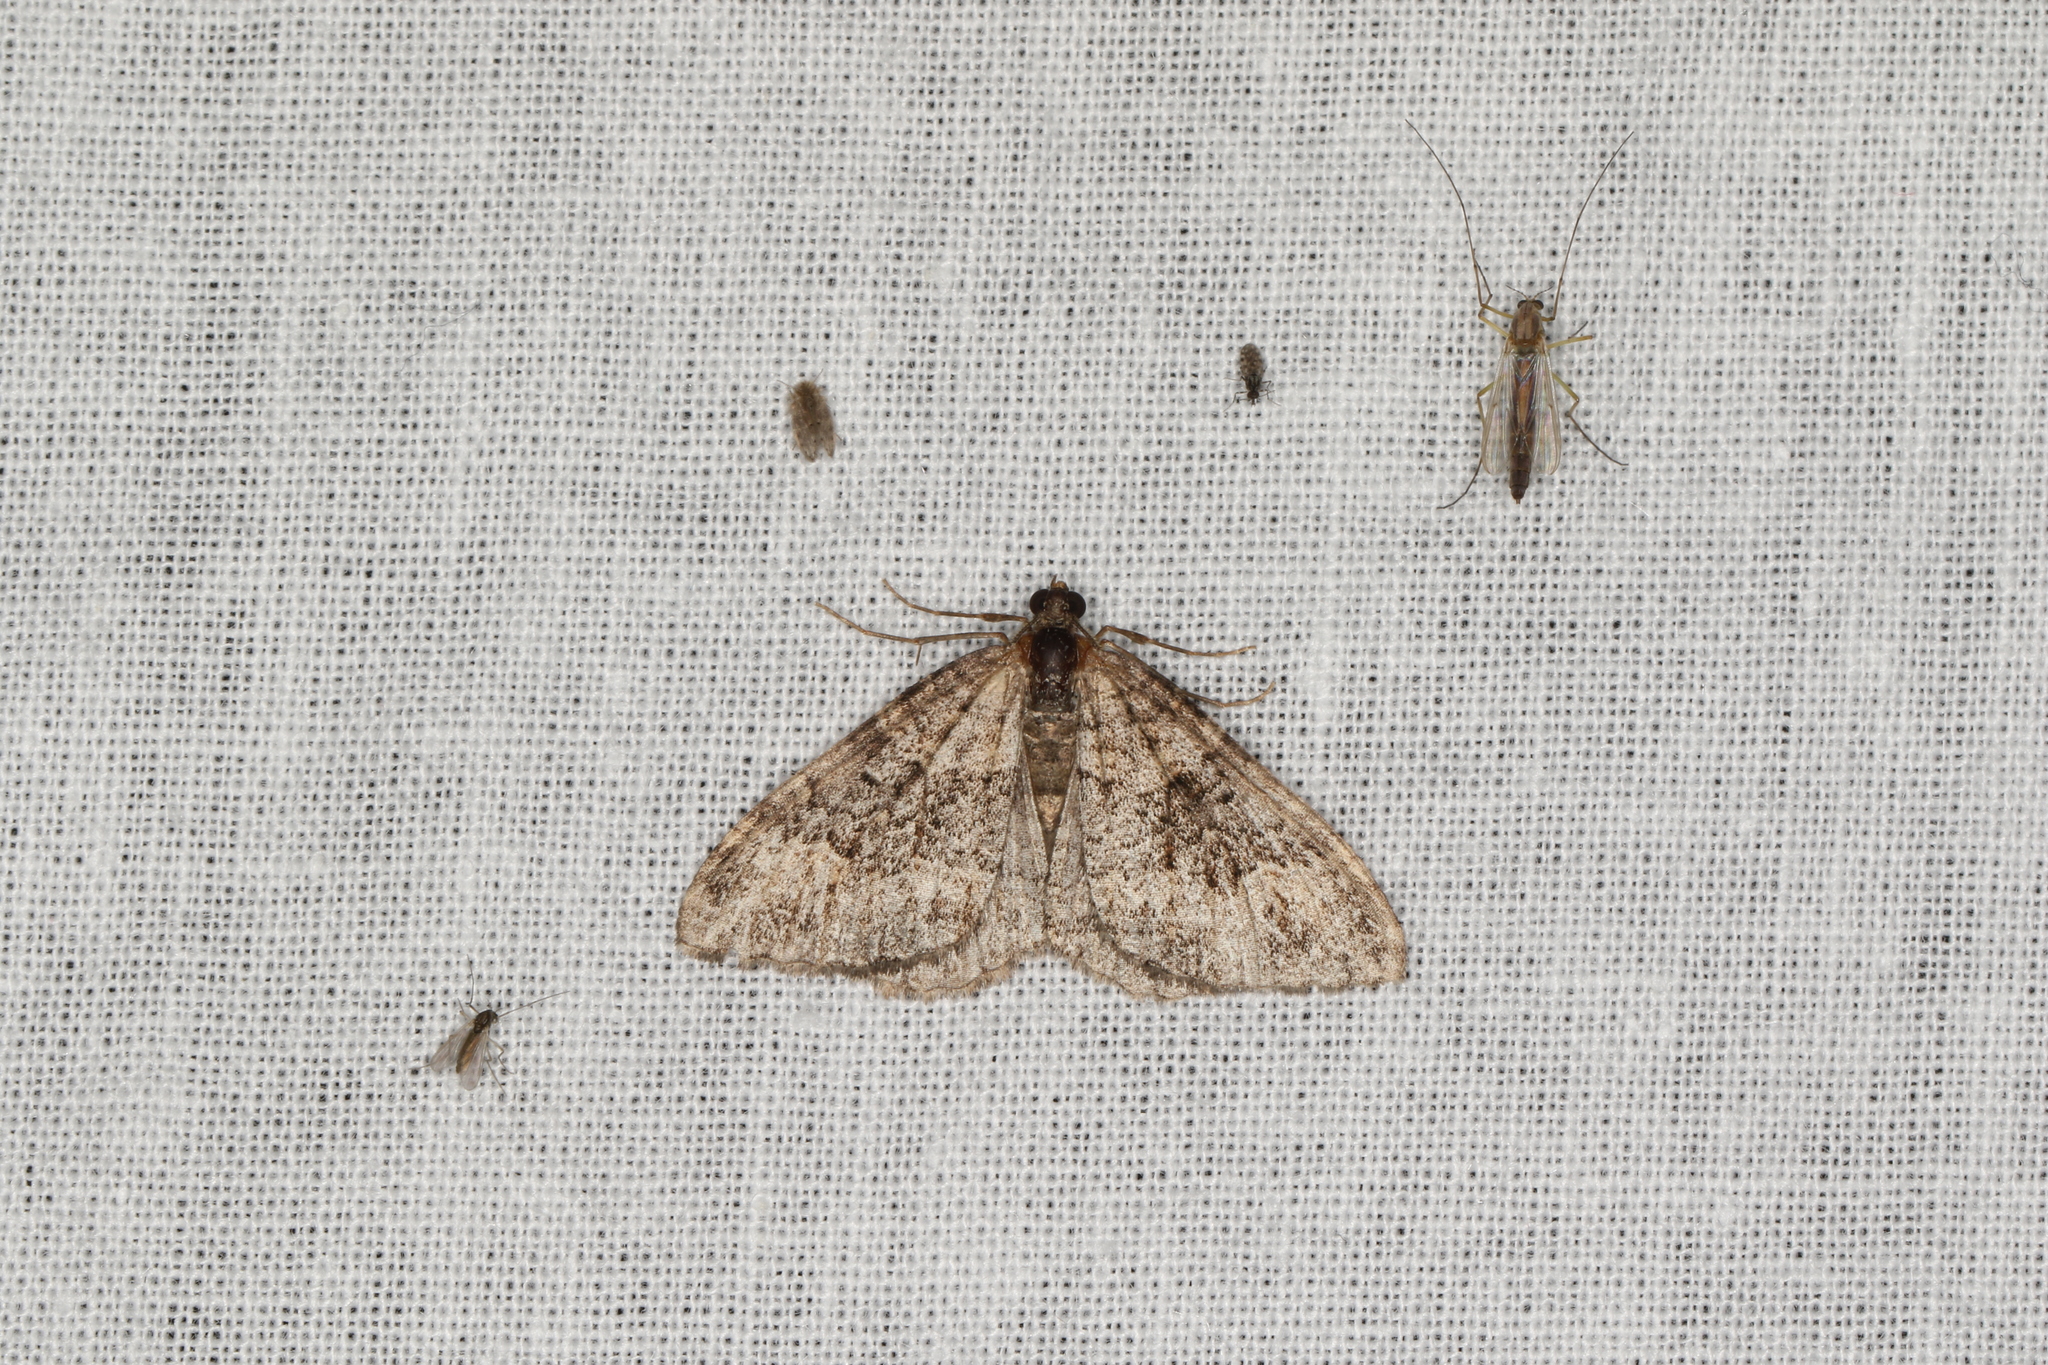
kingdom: Animalia
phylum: Arthropoda
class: Insecta
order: Lepidoptera
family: Geometridae
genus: Chrysolarentia
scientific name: Chrysolarentia imperviata
